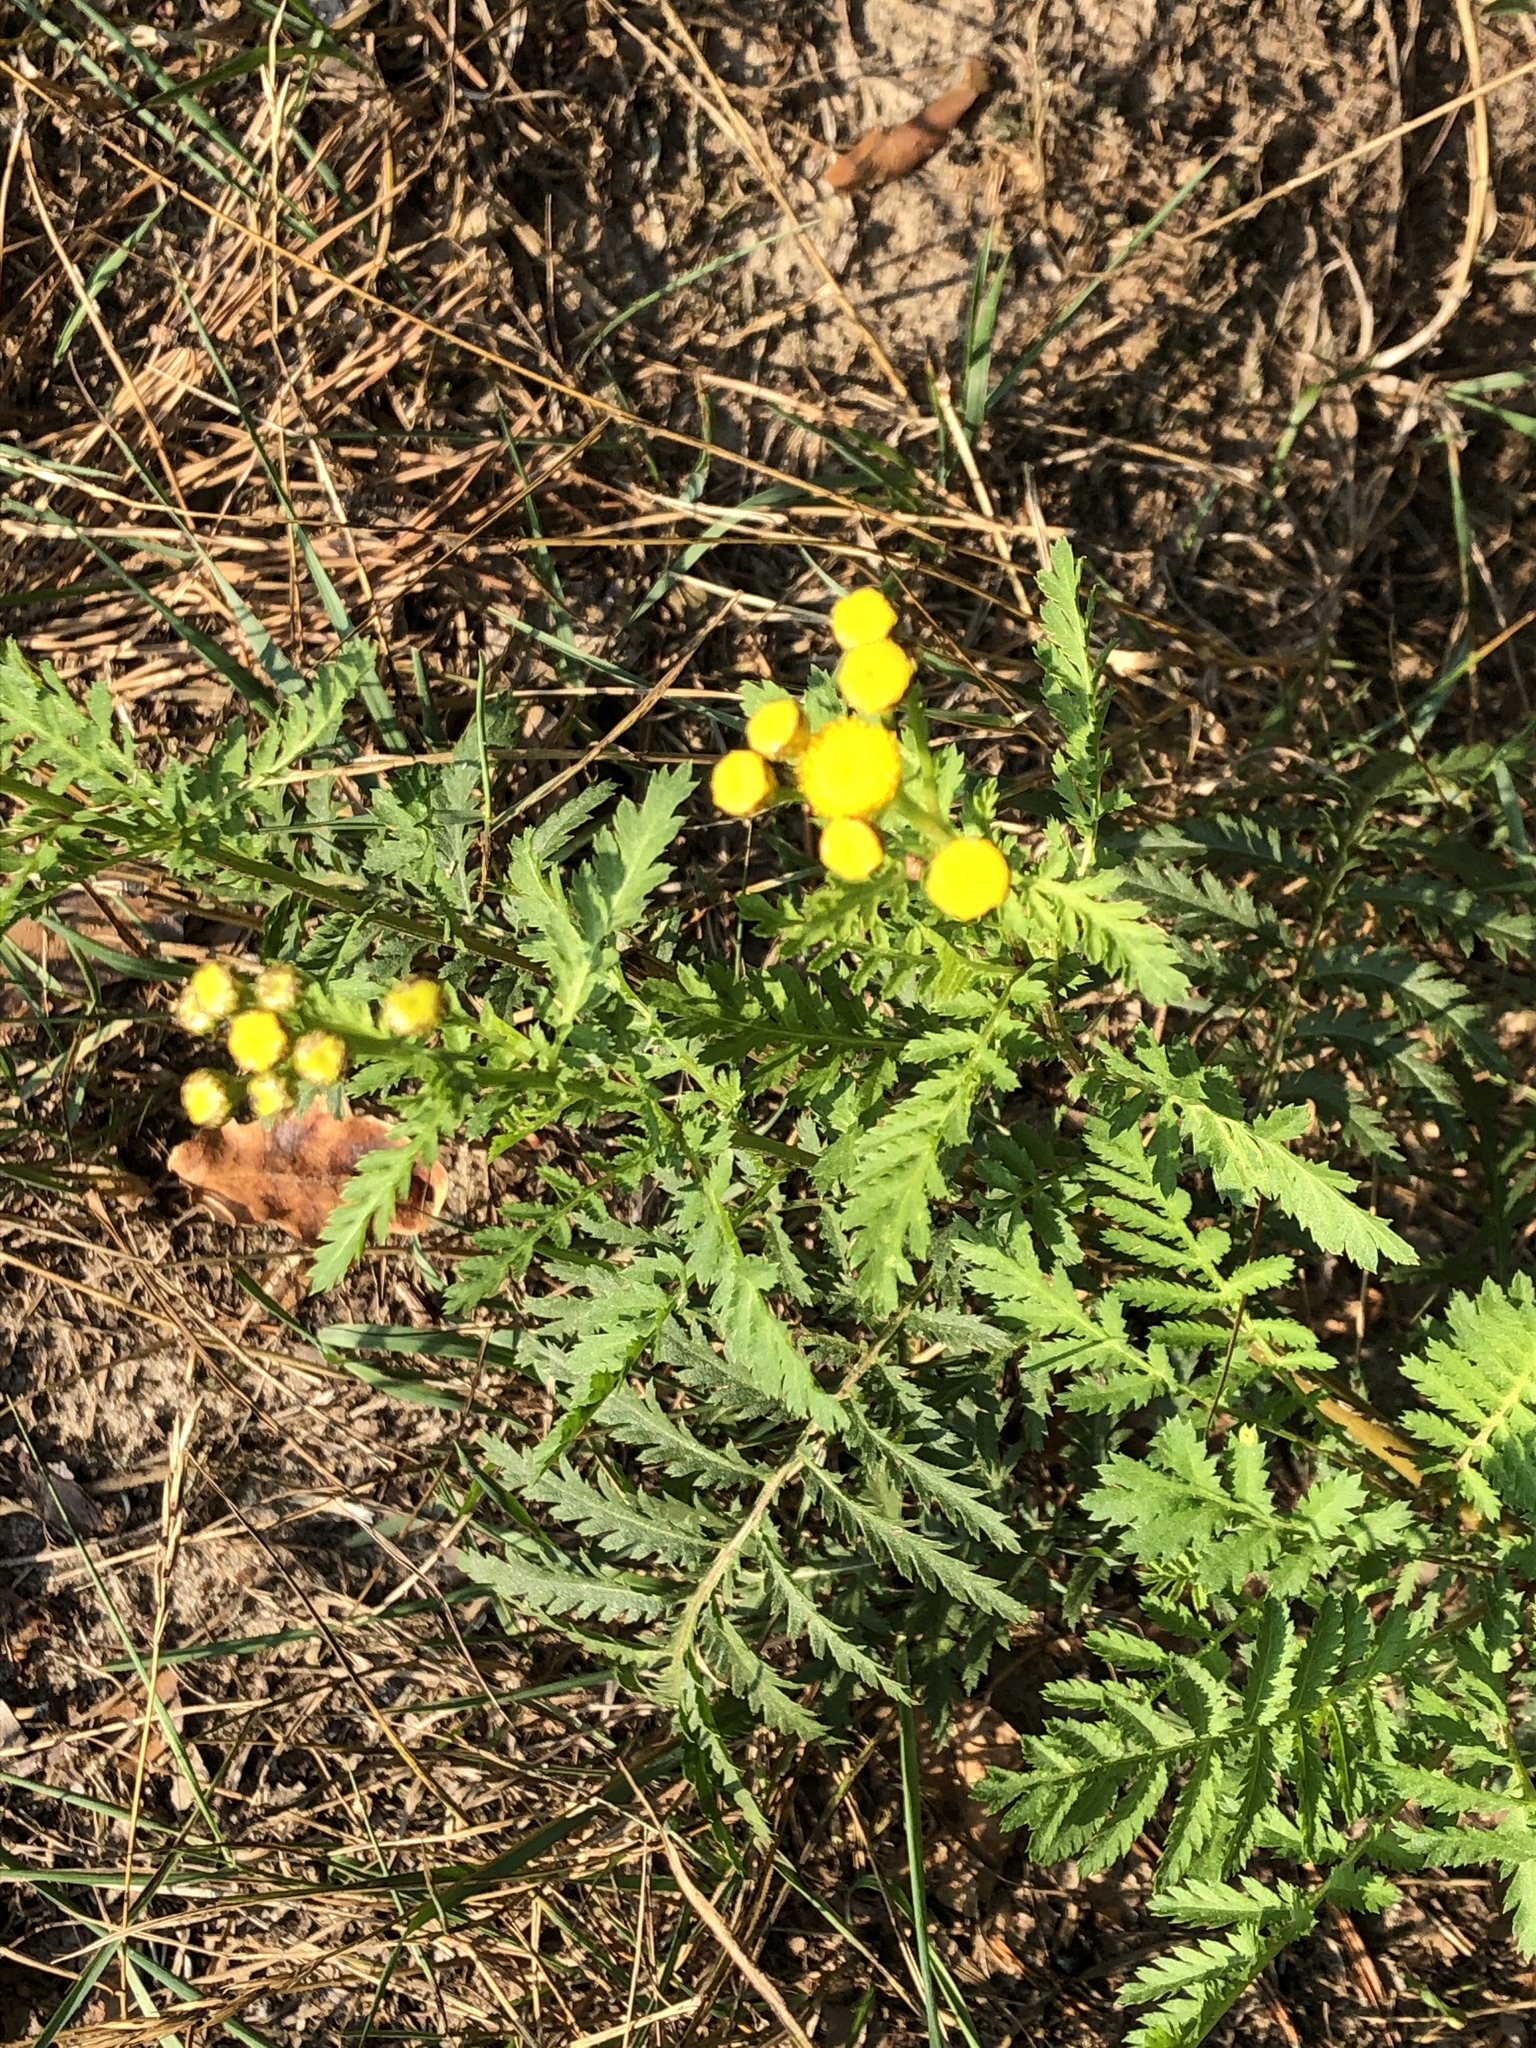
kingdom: Plantae
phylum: Tracheophyta
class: Magnoliopsida
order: Asterales
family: Asteraceae
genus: Tanacetum
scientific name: Tanacetum vulgare
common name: Common tansy
